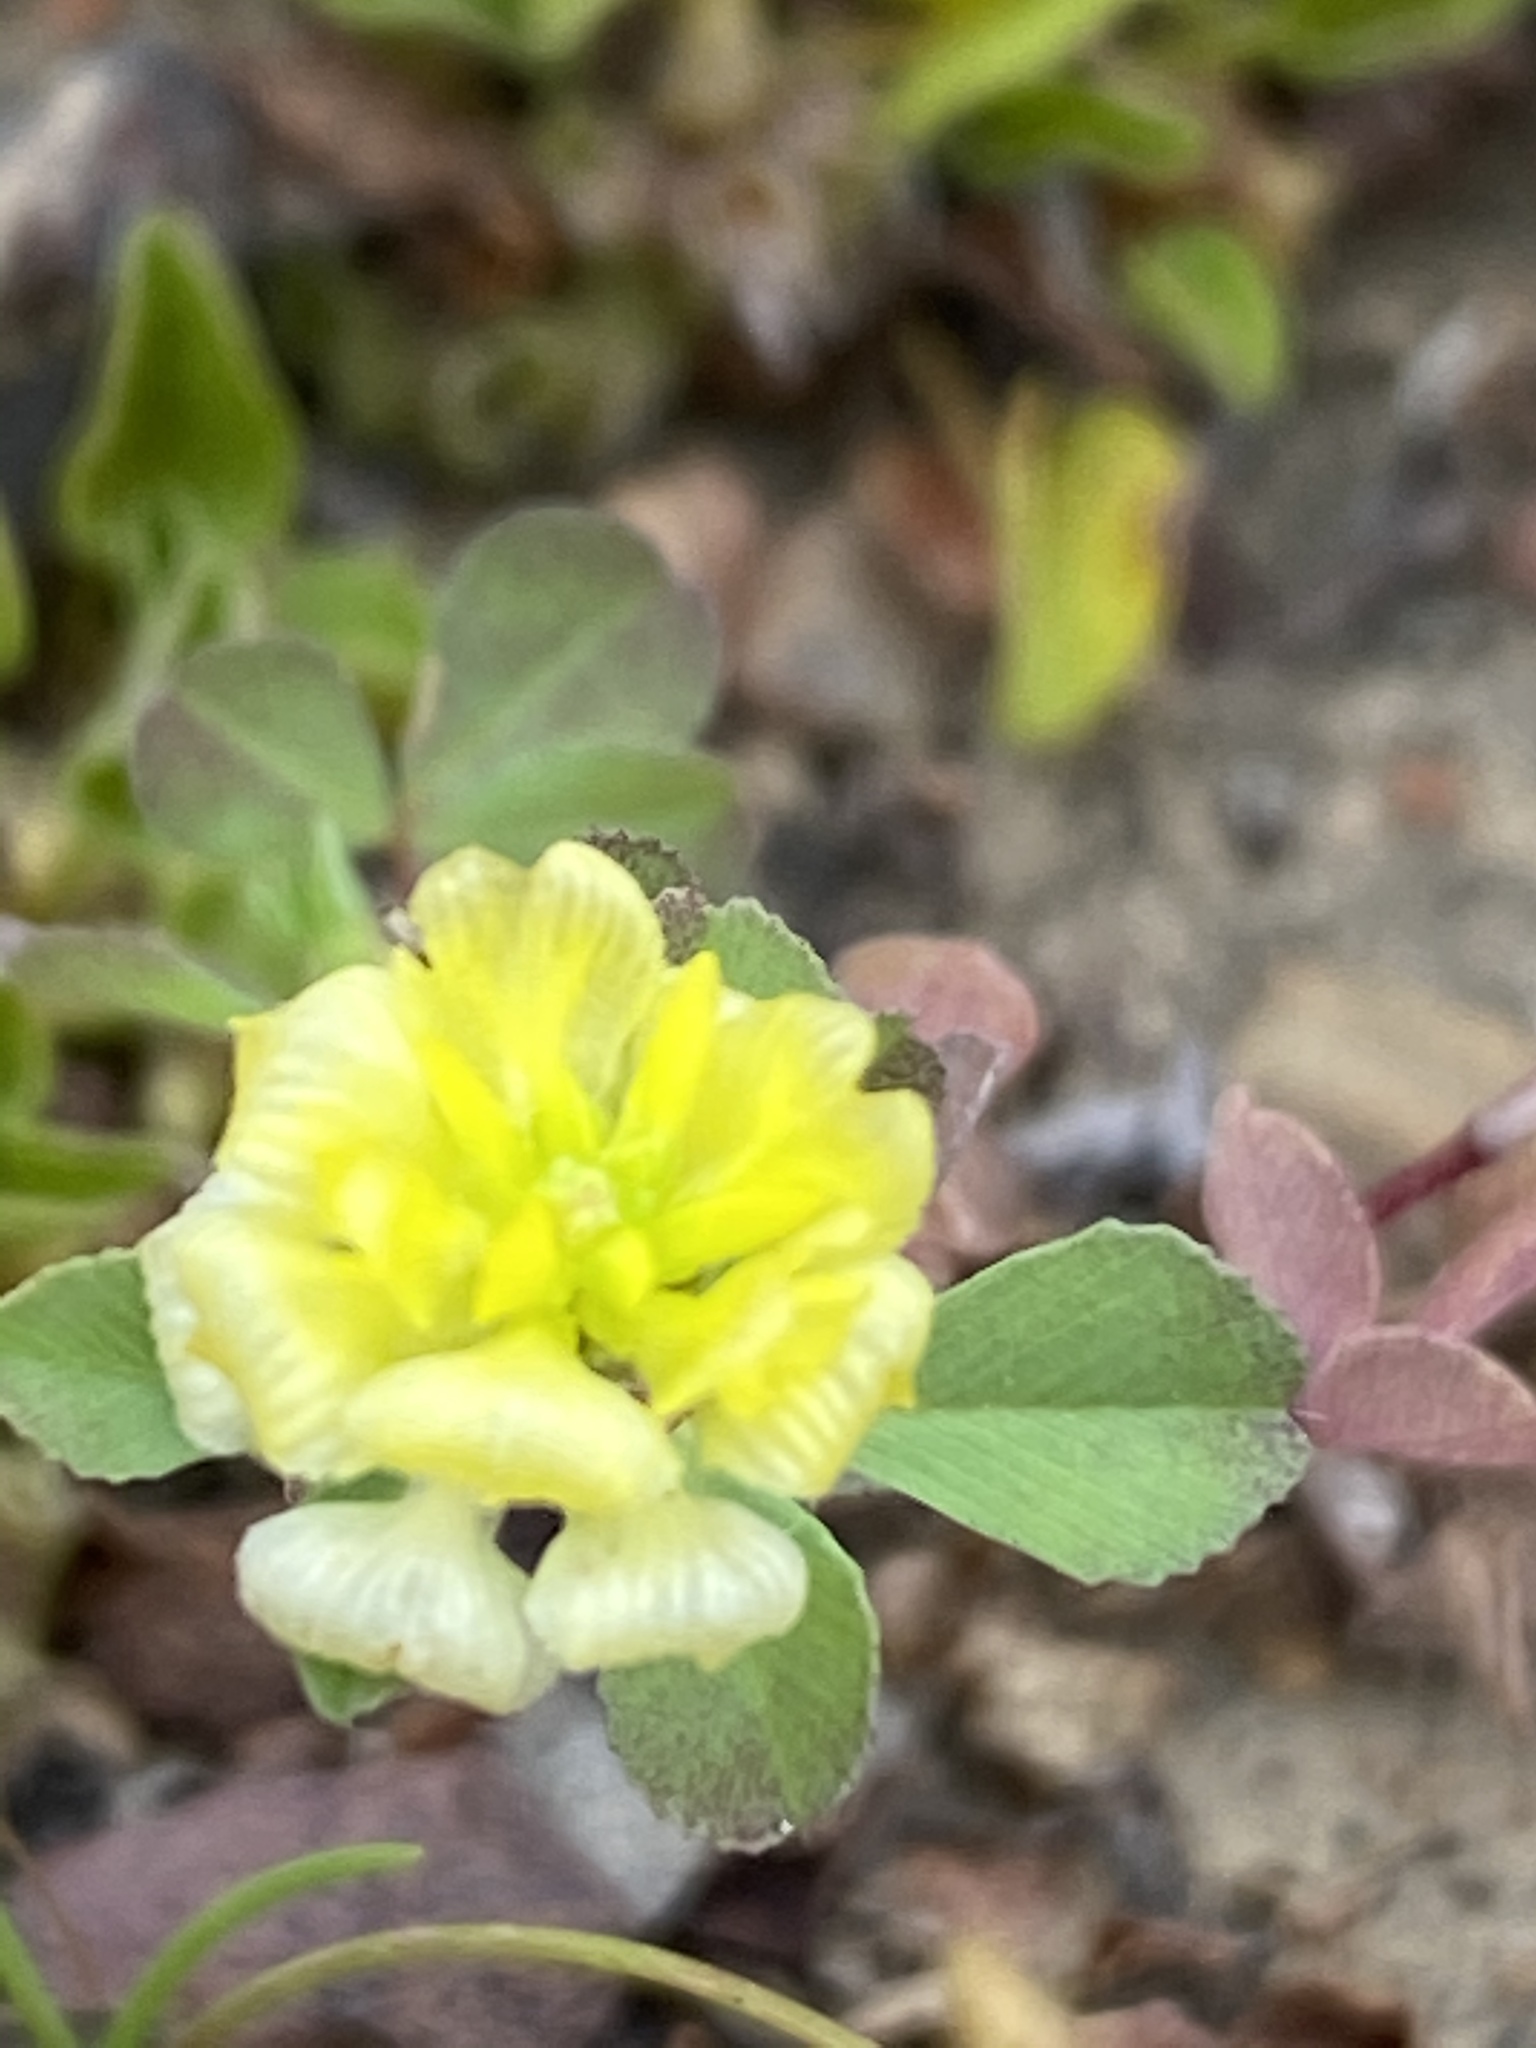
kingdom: Plantae
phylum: Tracheophyta
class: Magnoliopsida
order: Fabales
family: Fabaceae
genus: Trifolium
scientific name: Trifolium campestre
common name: Field clover
